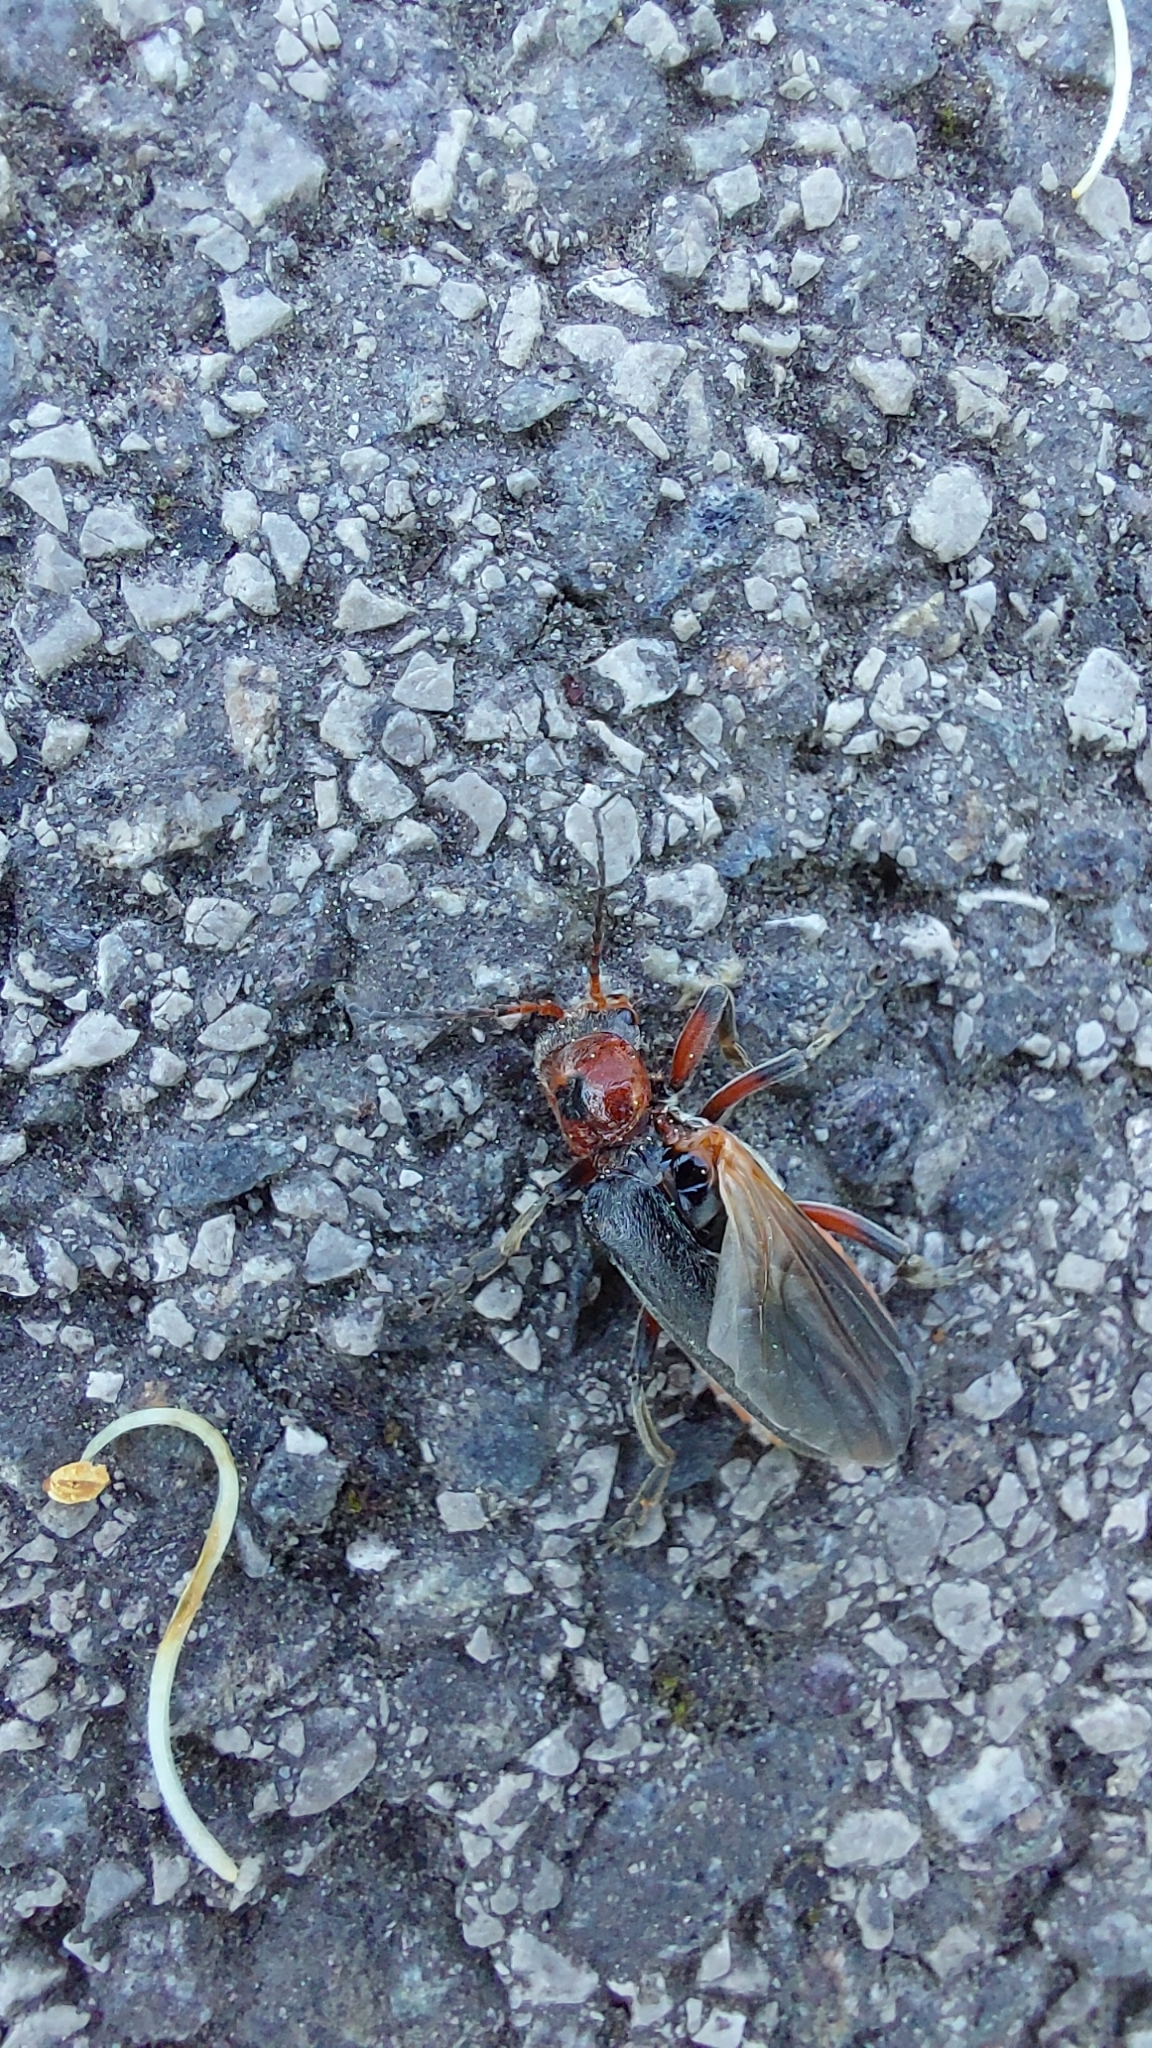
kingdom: Animalia
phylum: Arthropoda
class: Insecta
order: Coleoptera
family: Cantharidae
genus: Cantharis
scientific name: Cantharis rustica
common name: Soldier beetle
